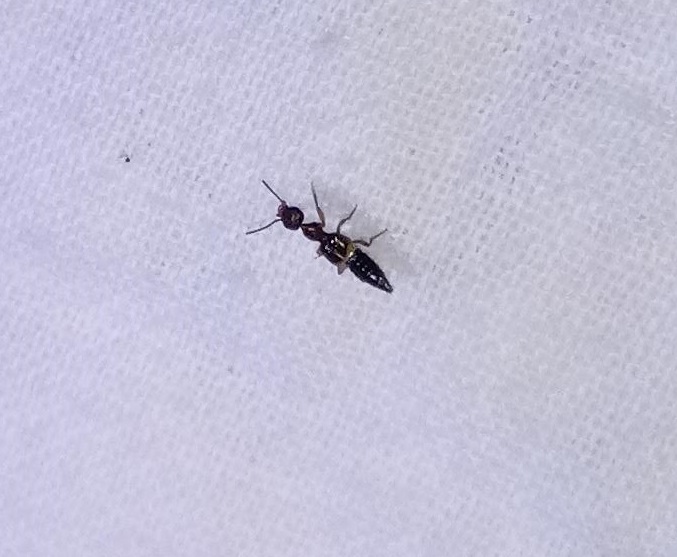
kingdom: Animalia
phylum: Arthropoda
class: Insecta
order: Coleoptera
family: Staphylinidae
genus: Rugilus
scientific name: Rugilus angularis
